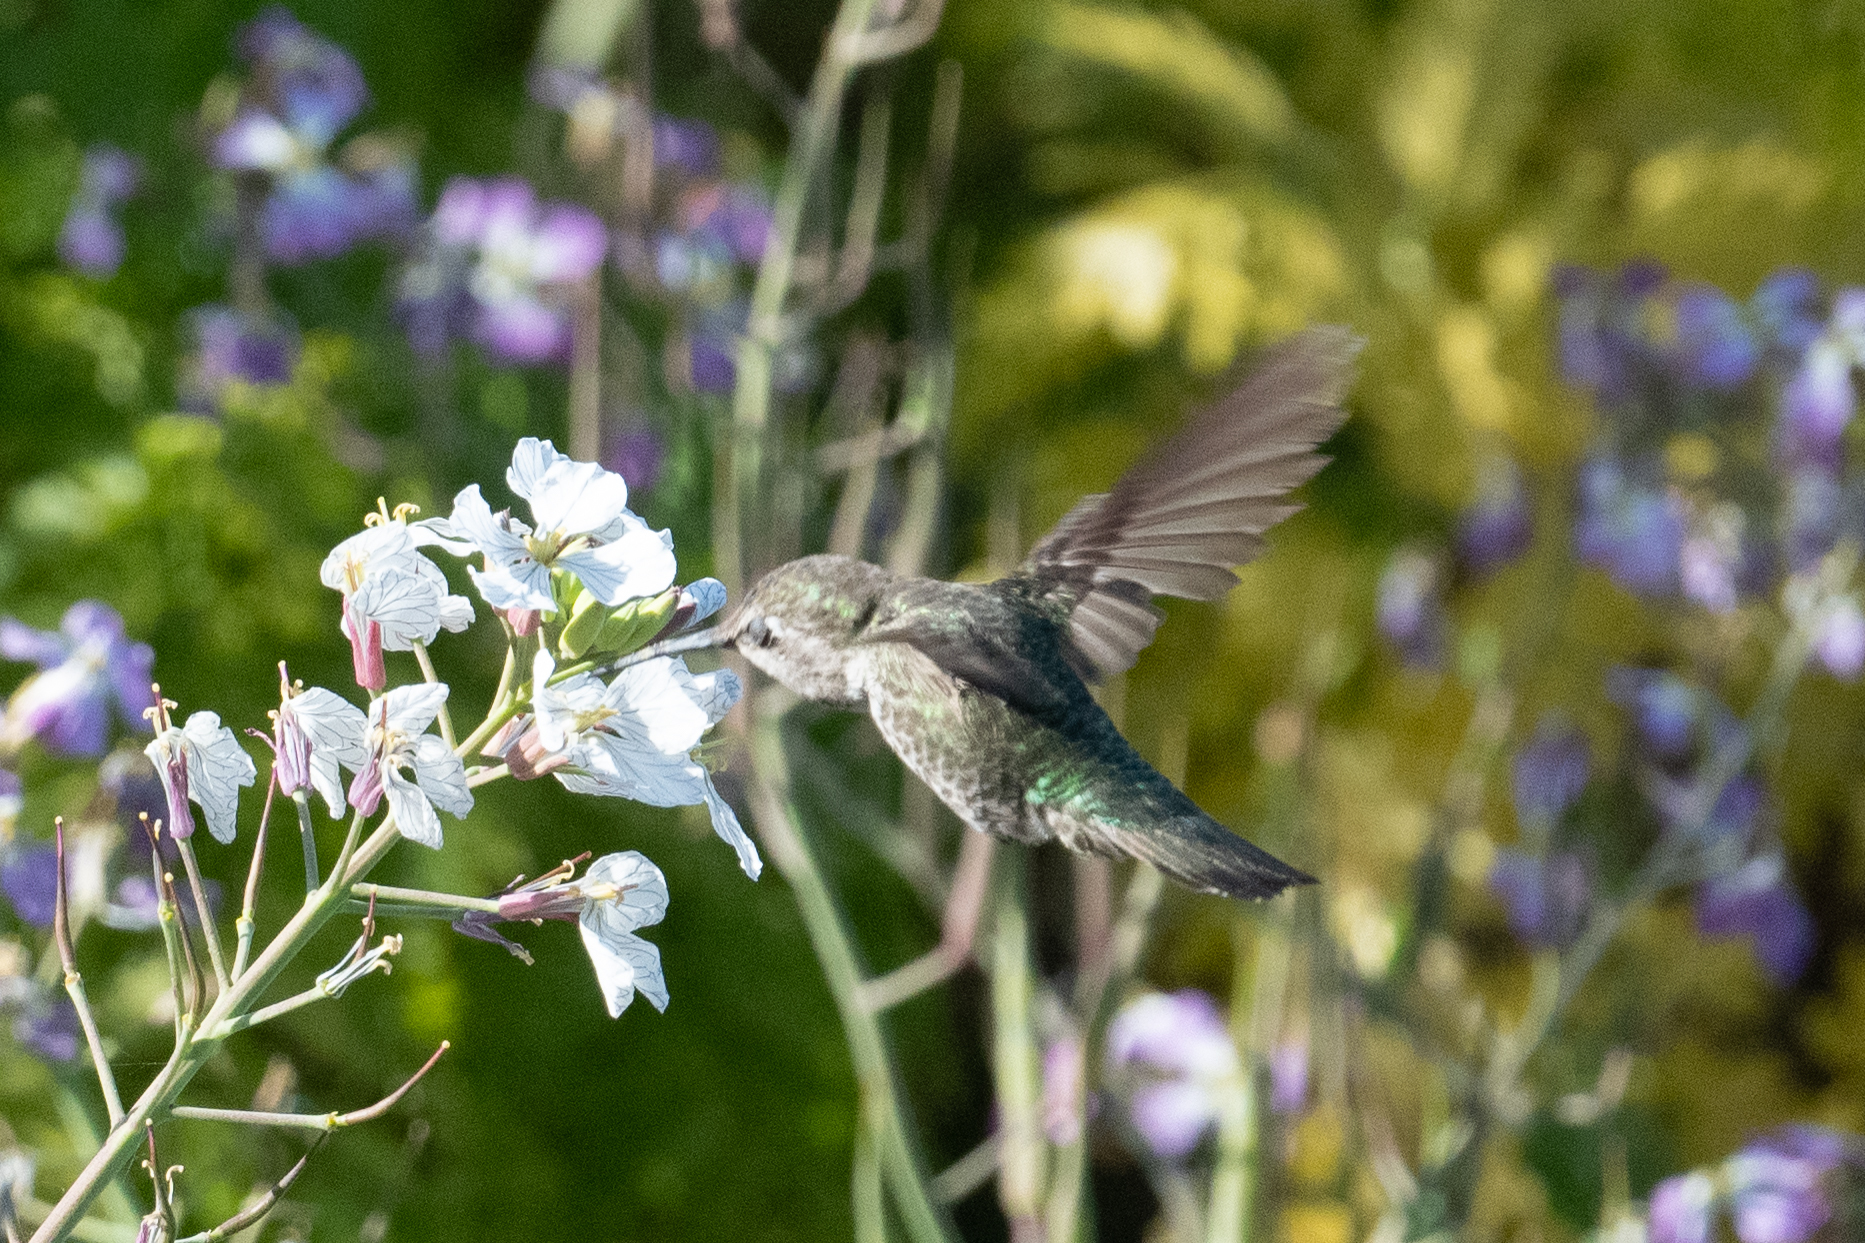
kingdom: Animalia
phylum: Chordata
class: Aves
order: Apodiformes
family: Trochilidae
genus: Calypte
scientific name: Calypte anna
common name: Anna's hummingbird
